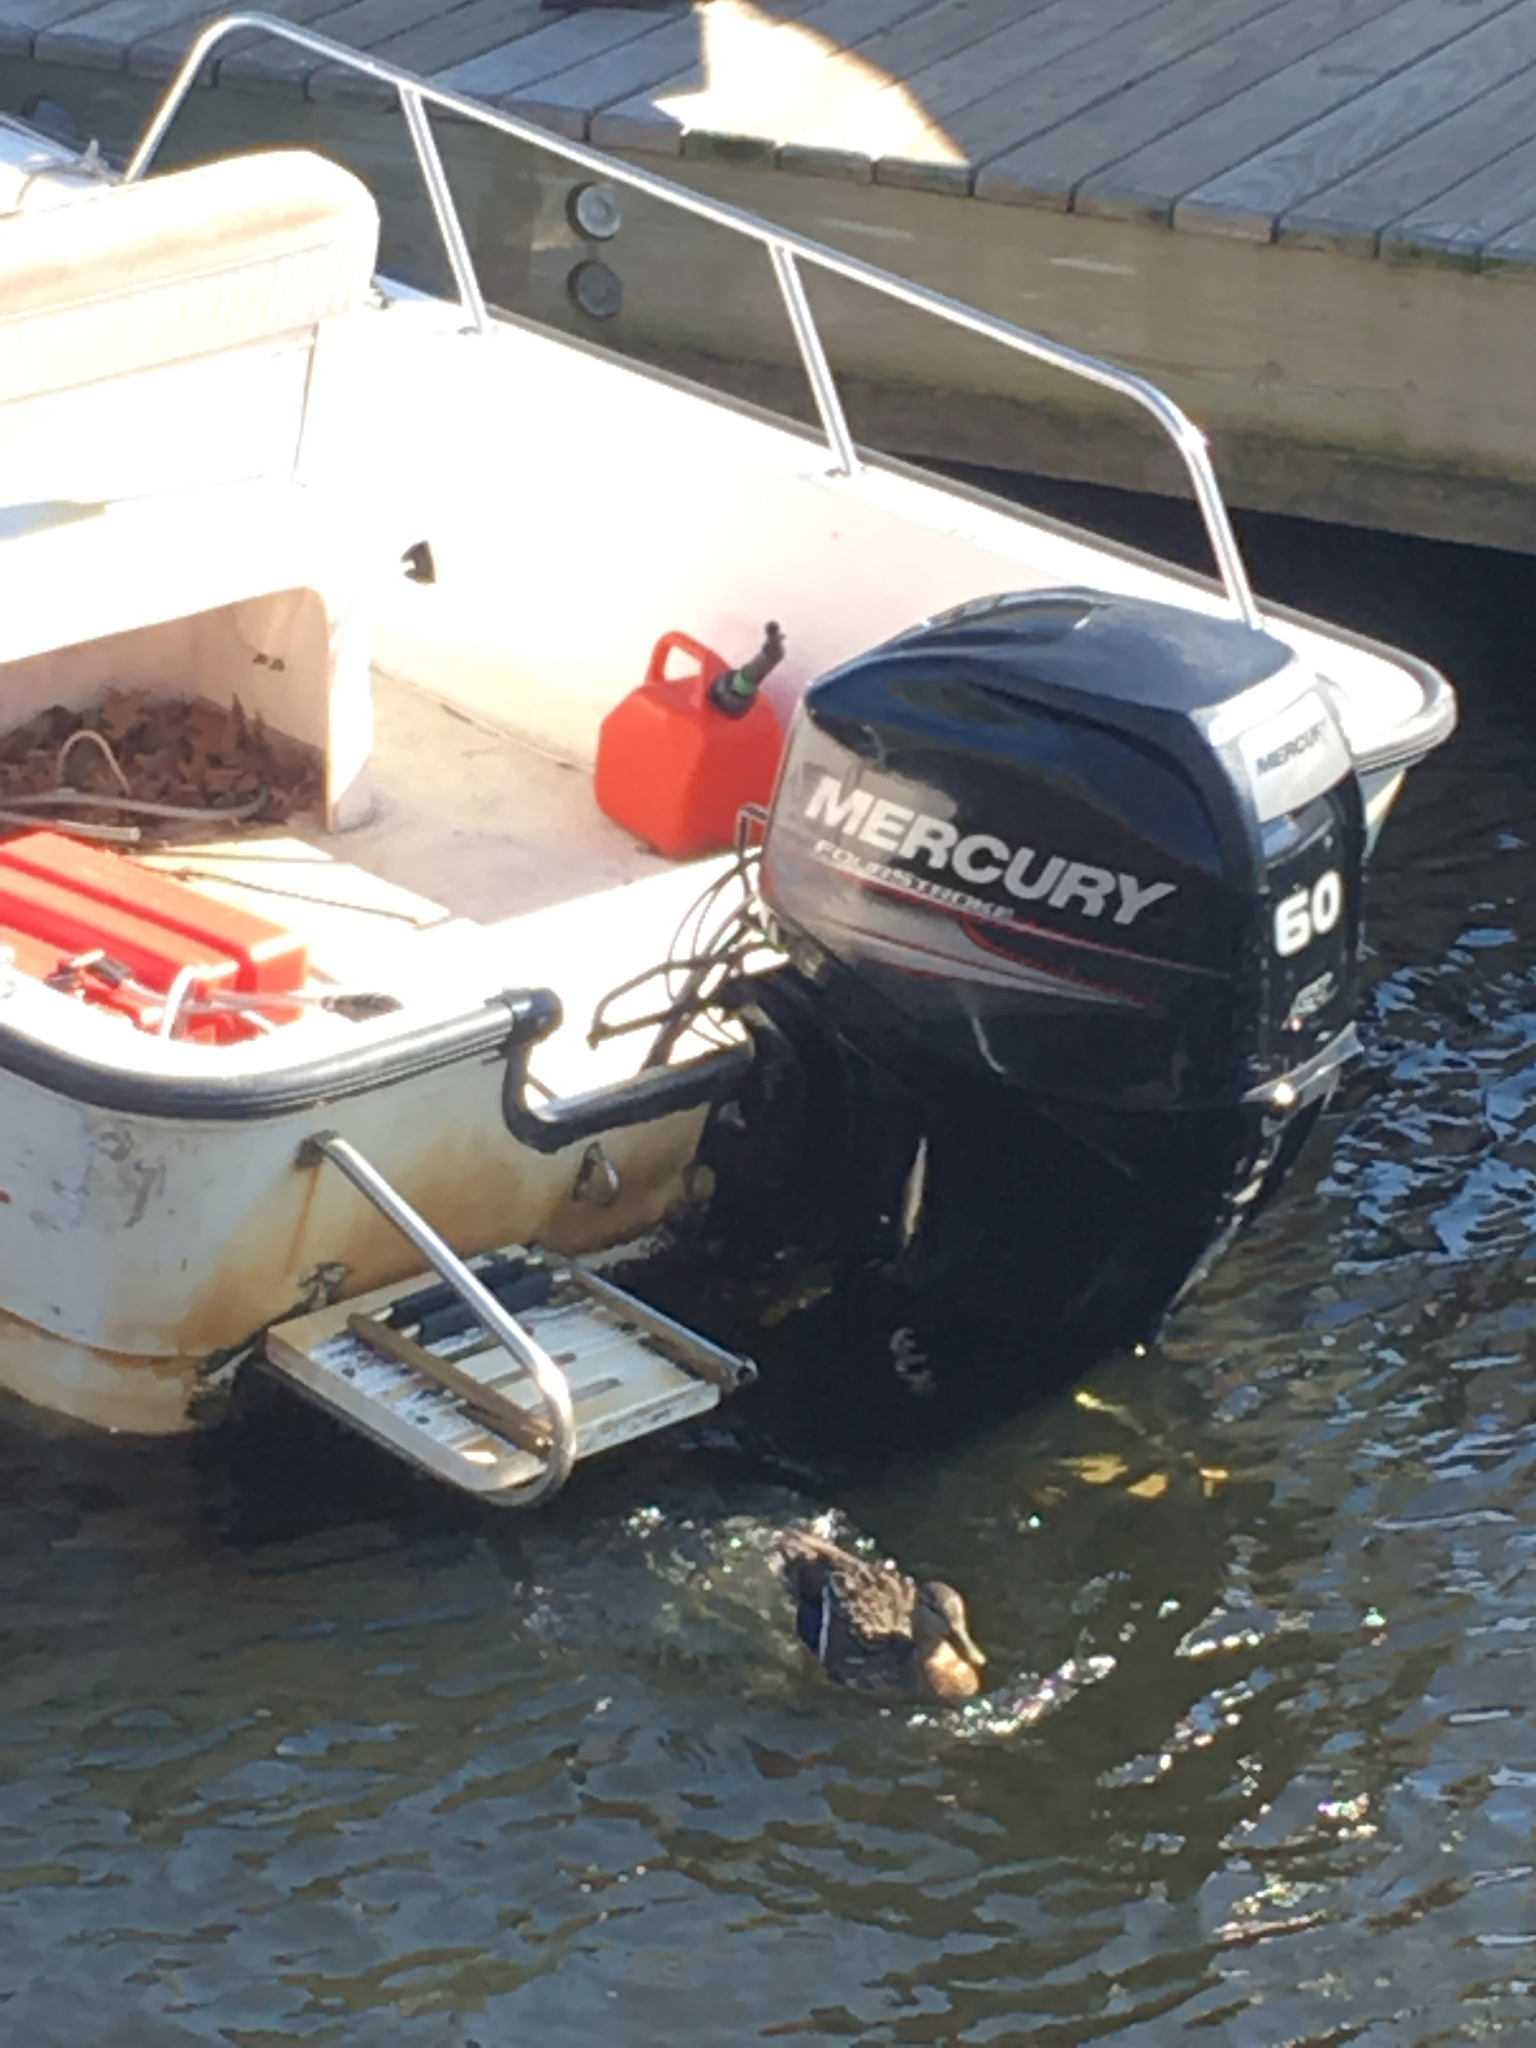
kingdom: Animalia
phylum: Chordata
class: Aves
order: Anseriformes
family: Anatidae
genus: Anas
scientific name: Anas platyrhynchos
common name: Mallard
